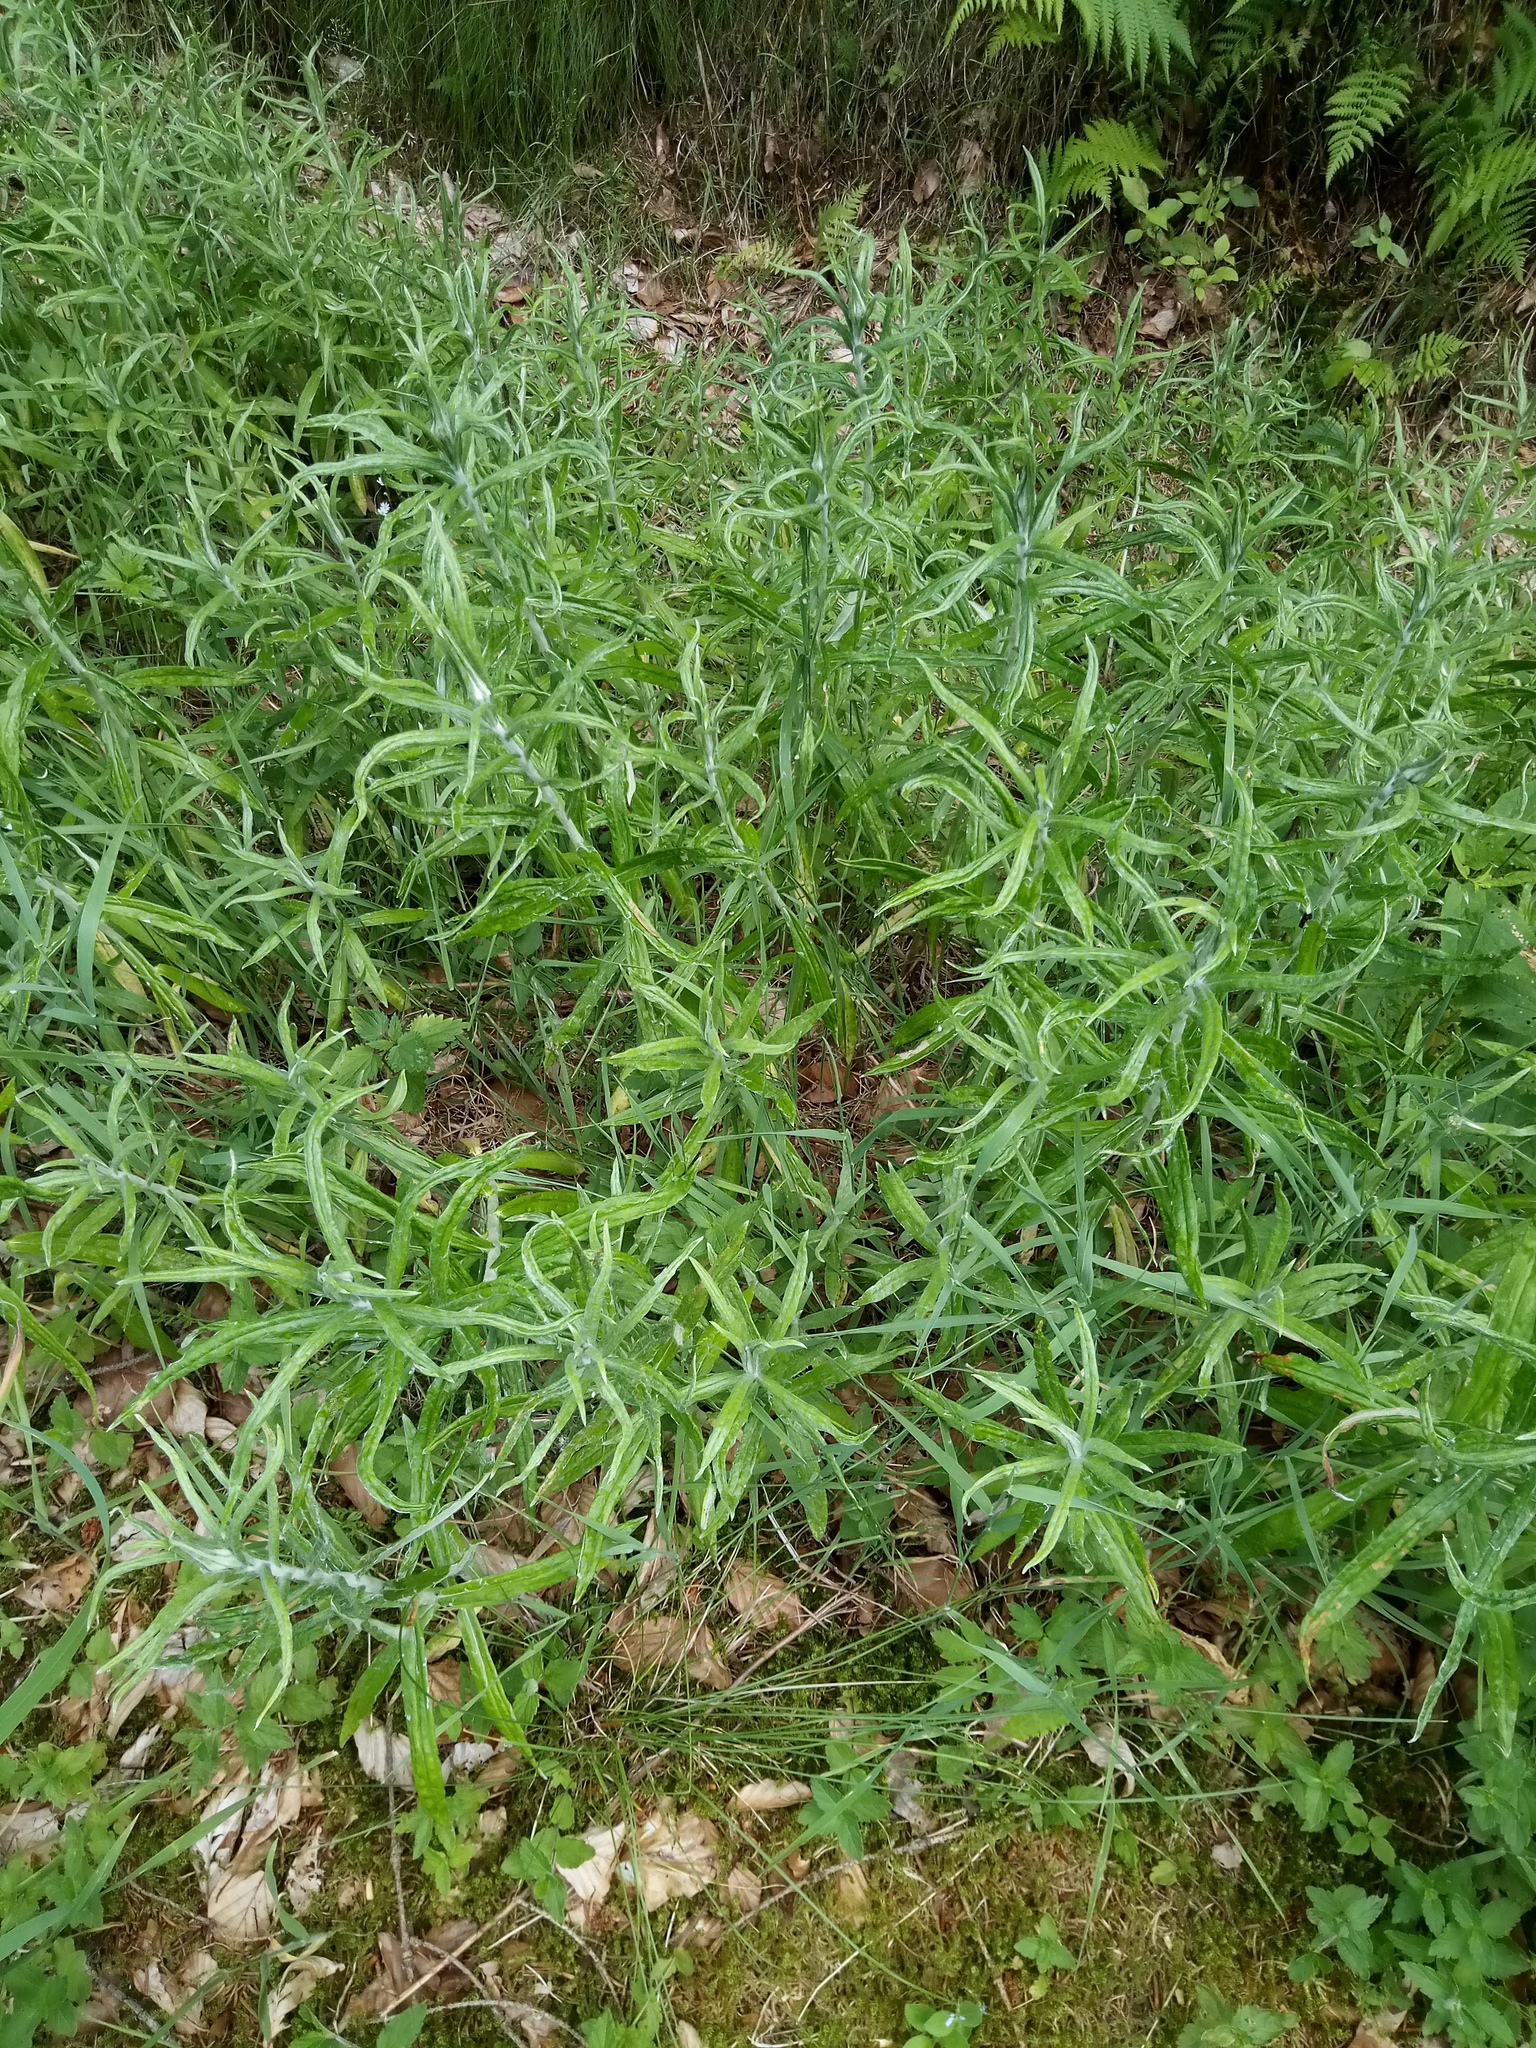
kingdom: Plantae
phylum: Tracheophyta
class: Magnoliopsida
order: Asterales
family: Asteraceae
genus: Anaphalis
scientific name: Anaphalis margaritacea
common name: Pearly everlasting
